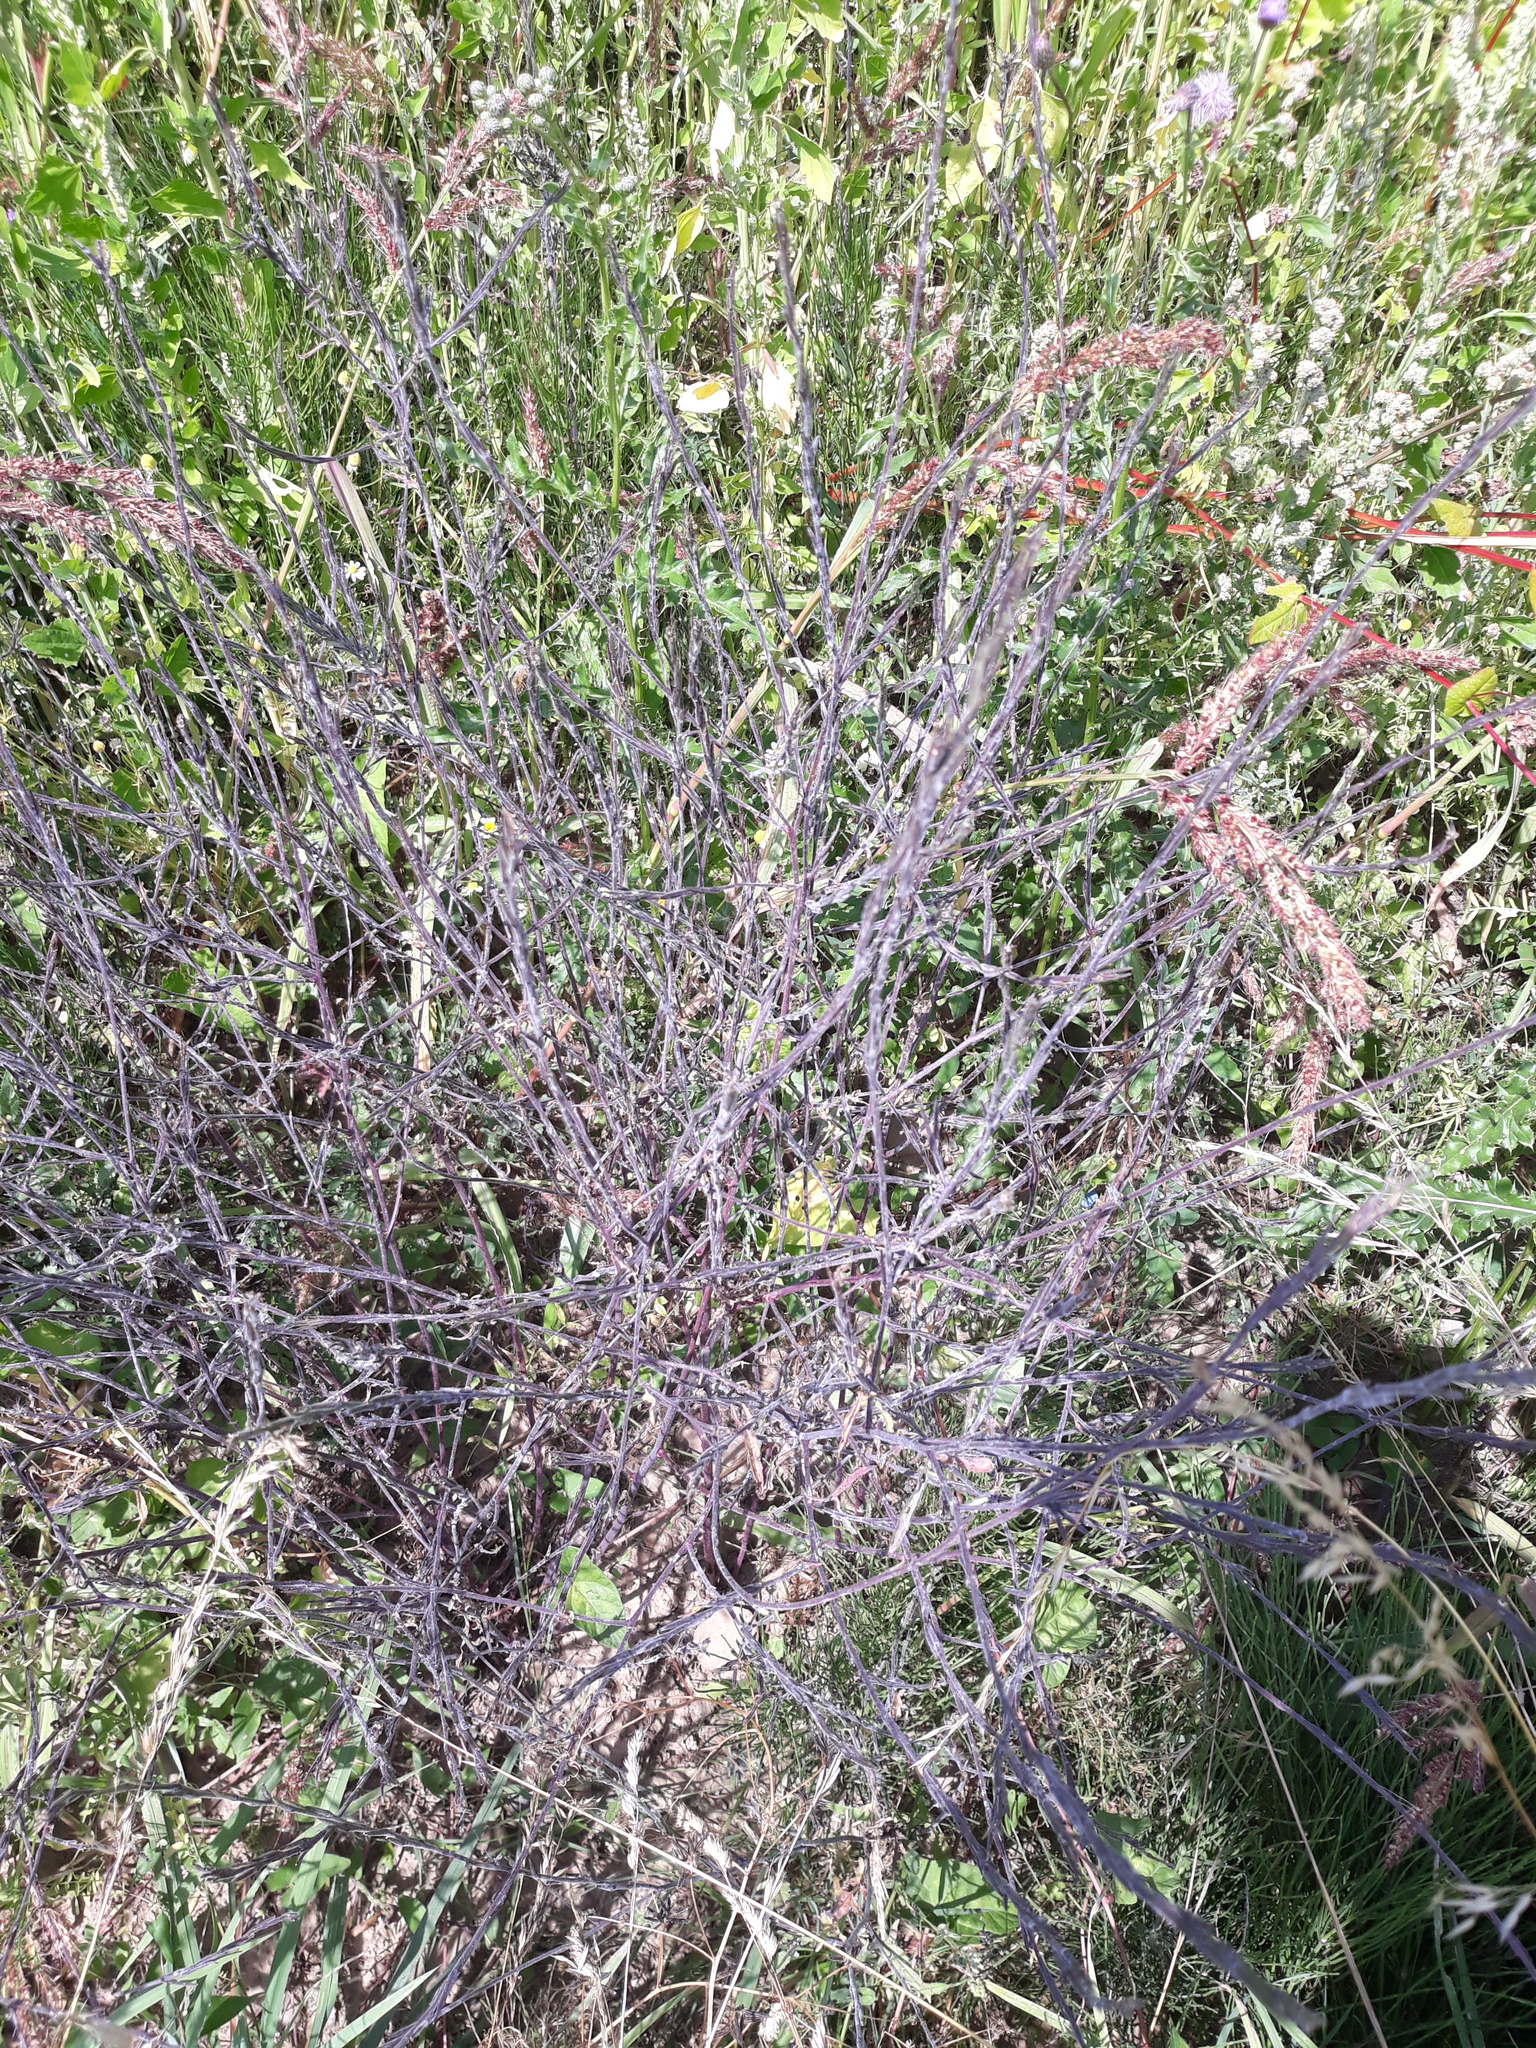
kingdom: Plantae
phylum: Tracheophyta
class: Magnoliopsida
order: Brassicales
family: Brassicaceae
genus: Sisymbrium
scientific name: Sisymbrium officinale
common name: Hedge mustard
